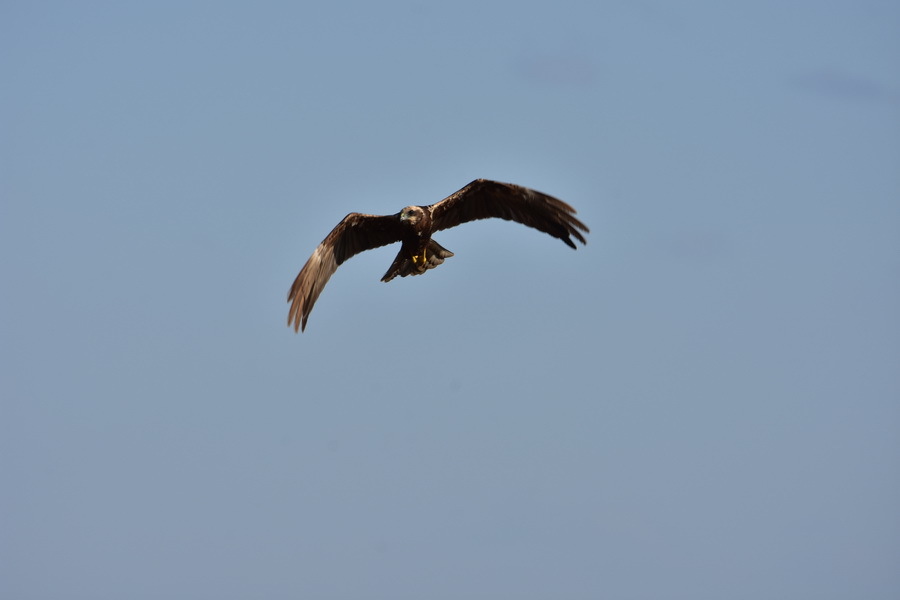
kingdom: Animalia
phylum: Chordata
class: Aves
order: Accipitriformes
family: Accipitridae
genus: Circus
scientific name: Circus aeruginosus
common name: Western marsh harrier
